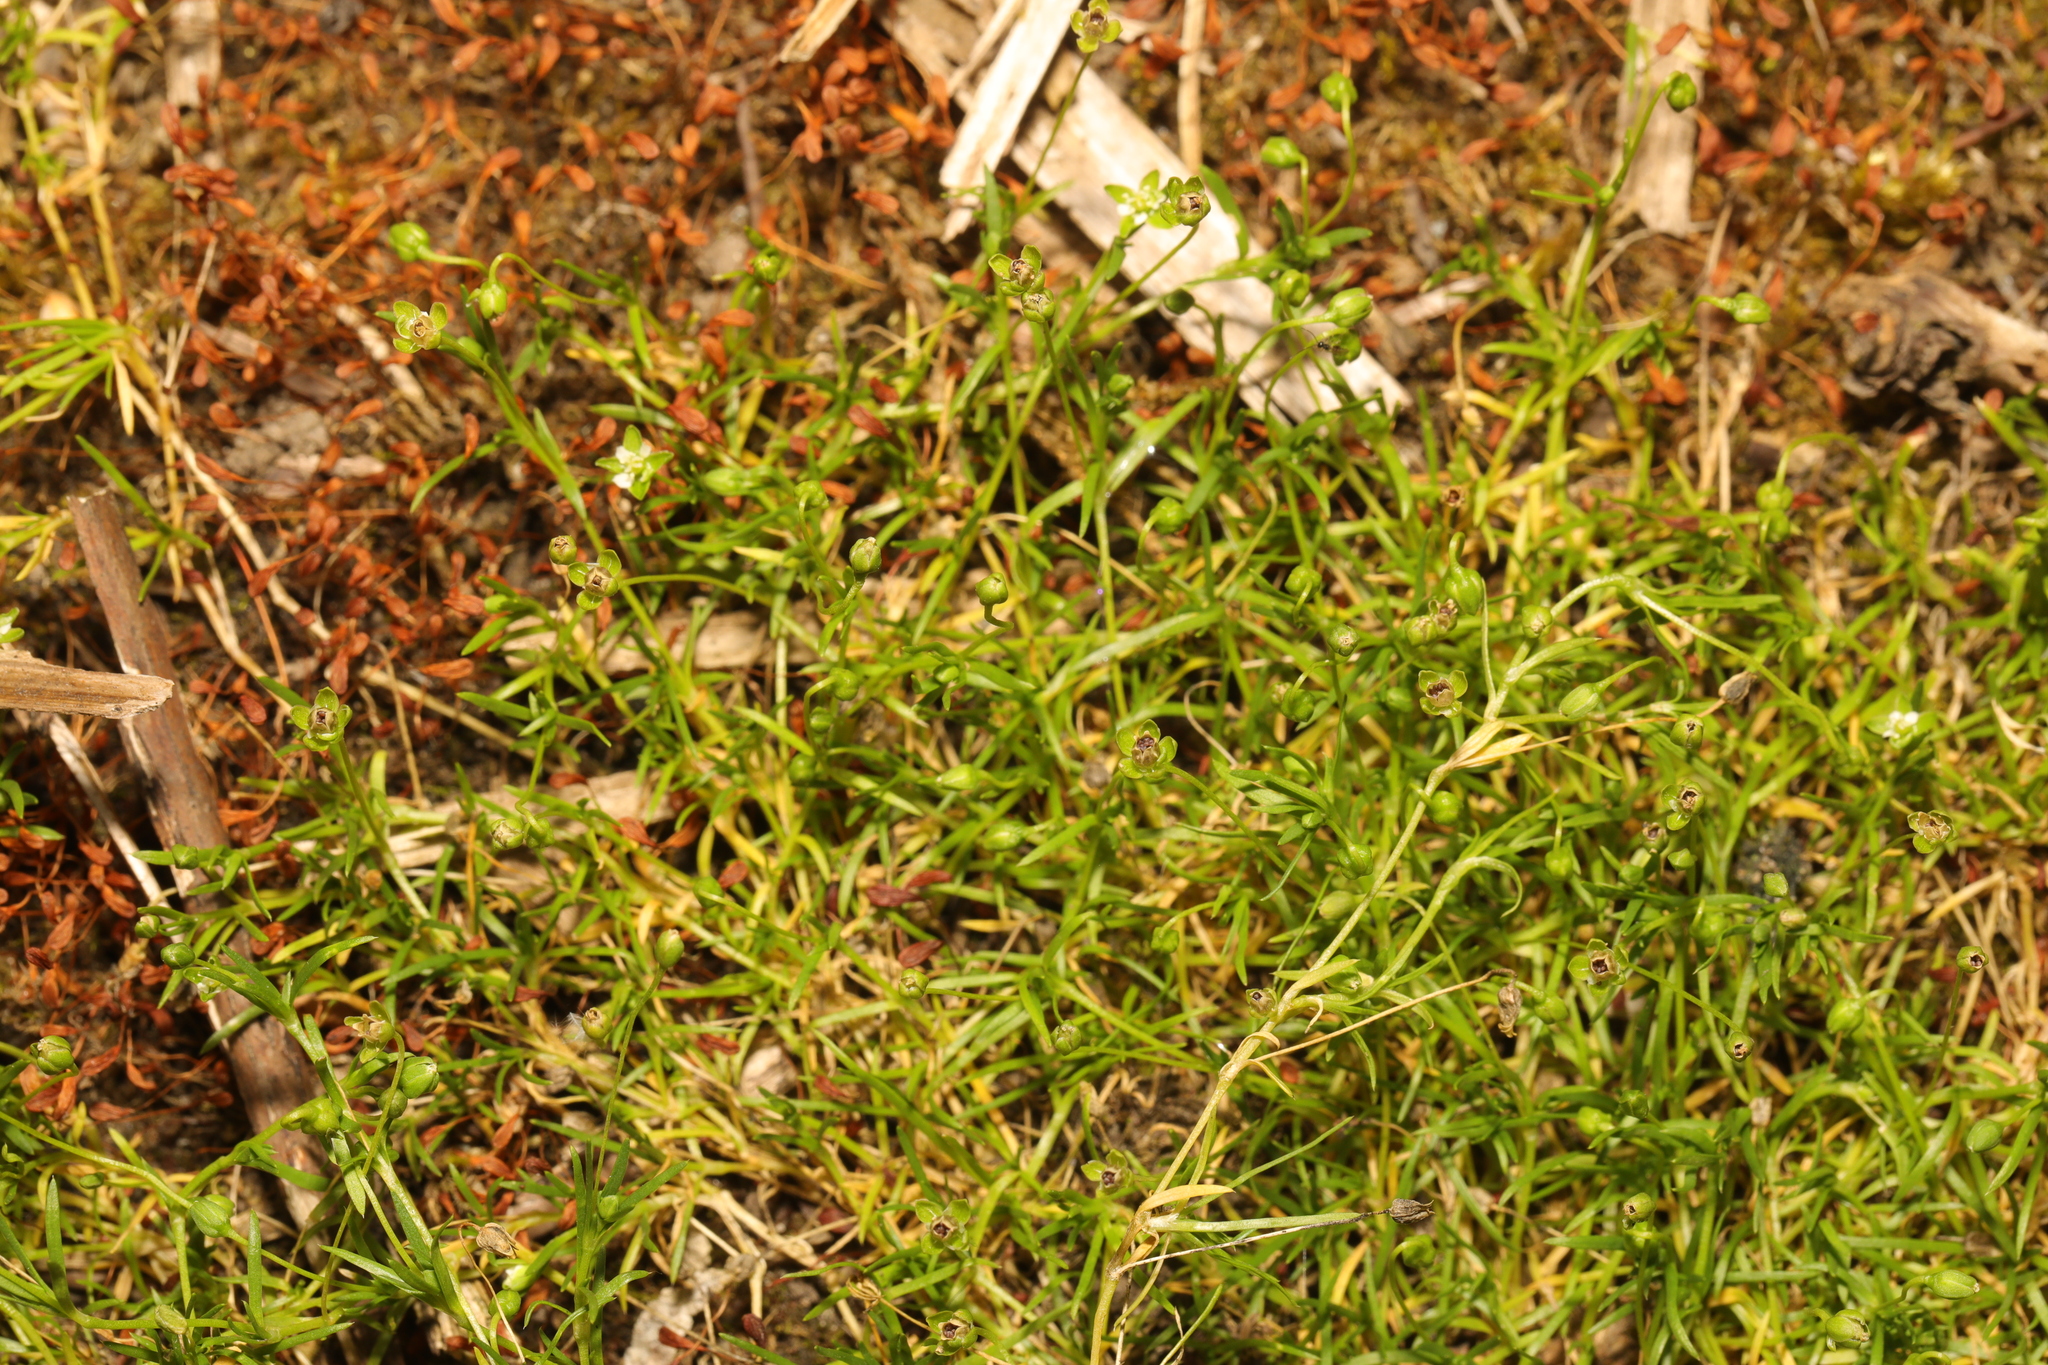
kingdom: Plantae
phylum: Tracheophyta
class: Magnoliopsida
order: Caryophyllales
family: Caryophyllaceae
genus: Sagina
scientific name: Sagina procumbens
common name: Procumbent pearlwort
